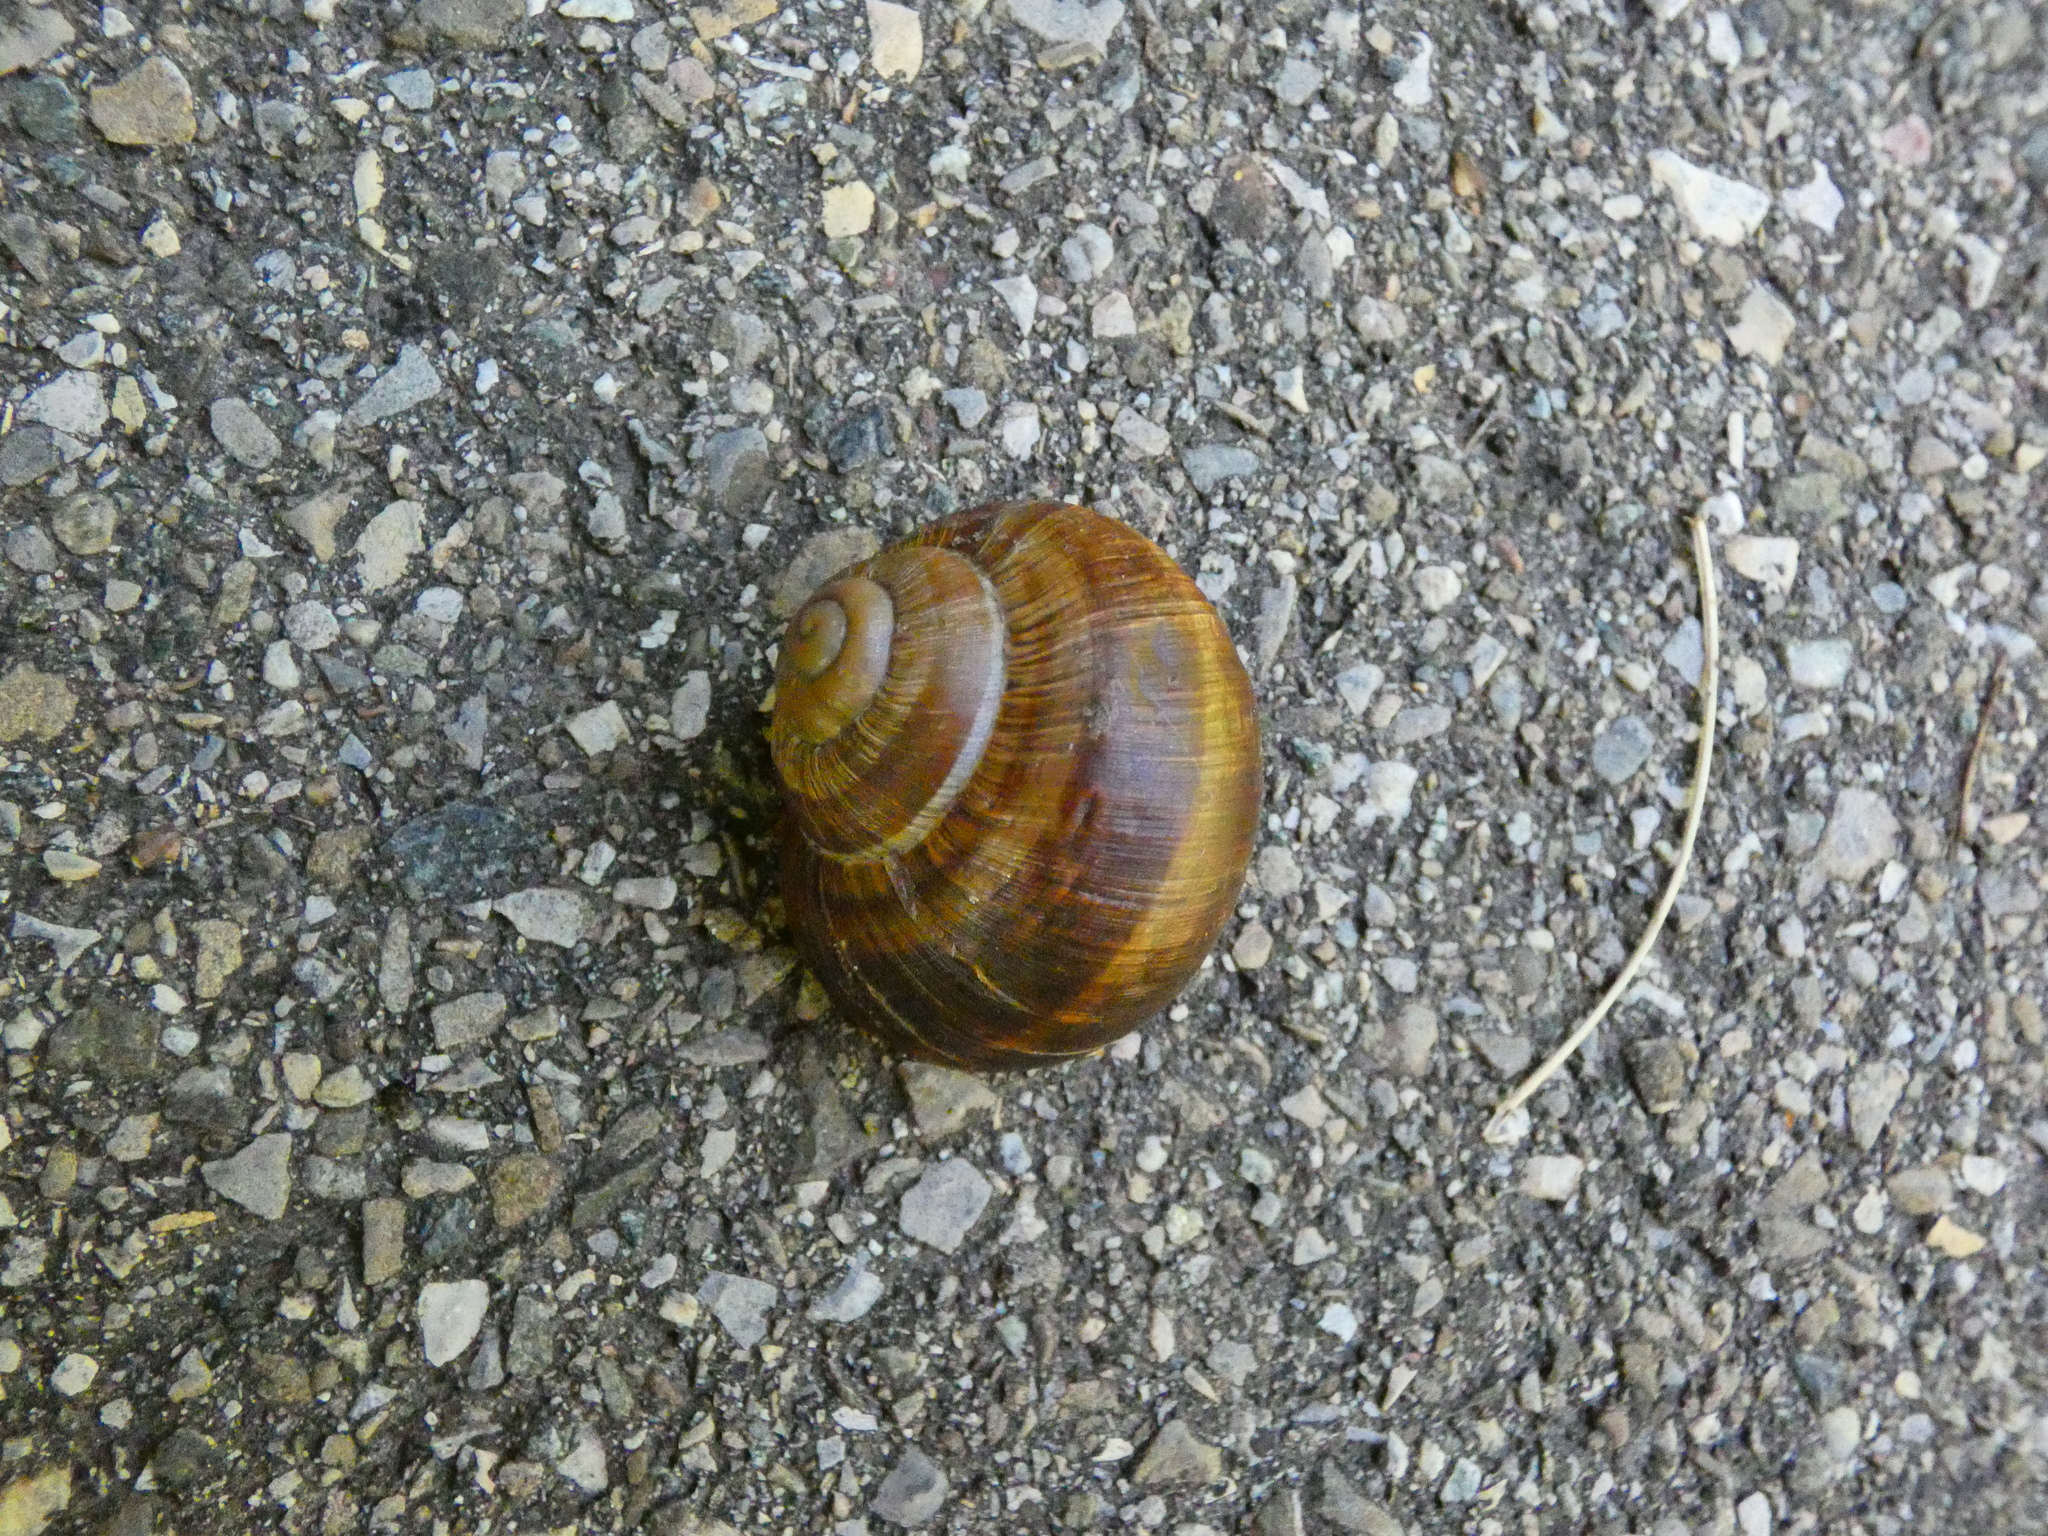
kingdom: Animalia
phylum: Mollusca
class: Gastropoda
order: Stylommatophora
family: Helicidae
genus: Helix
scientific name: Helix pomatia
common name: Roman snail
